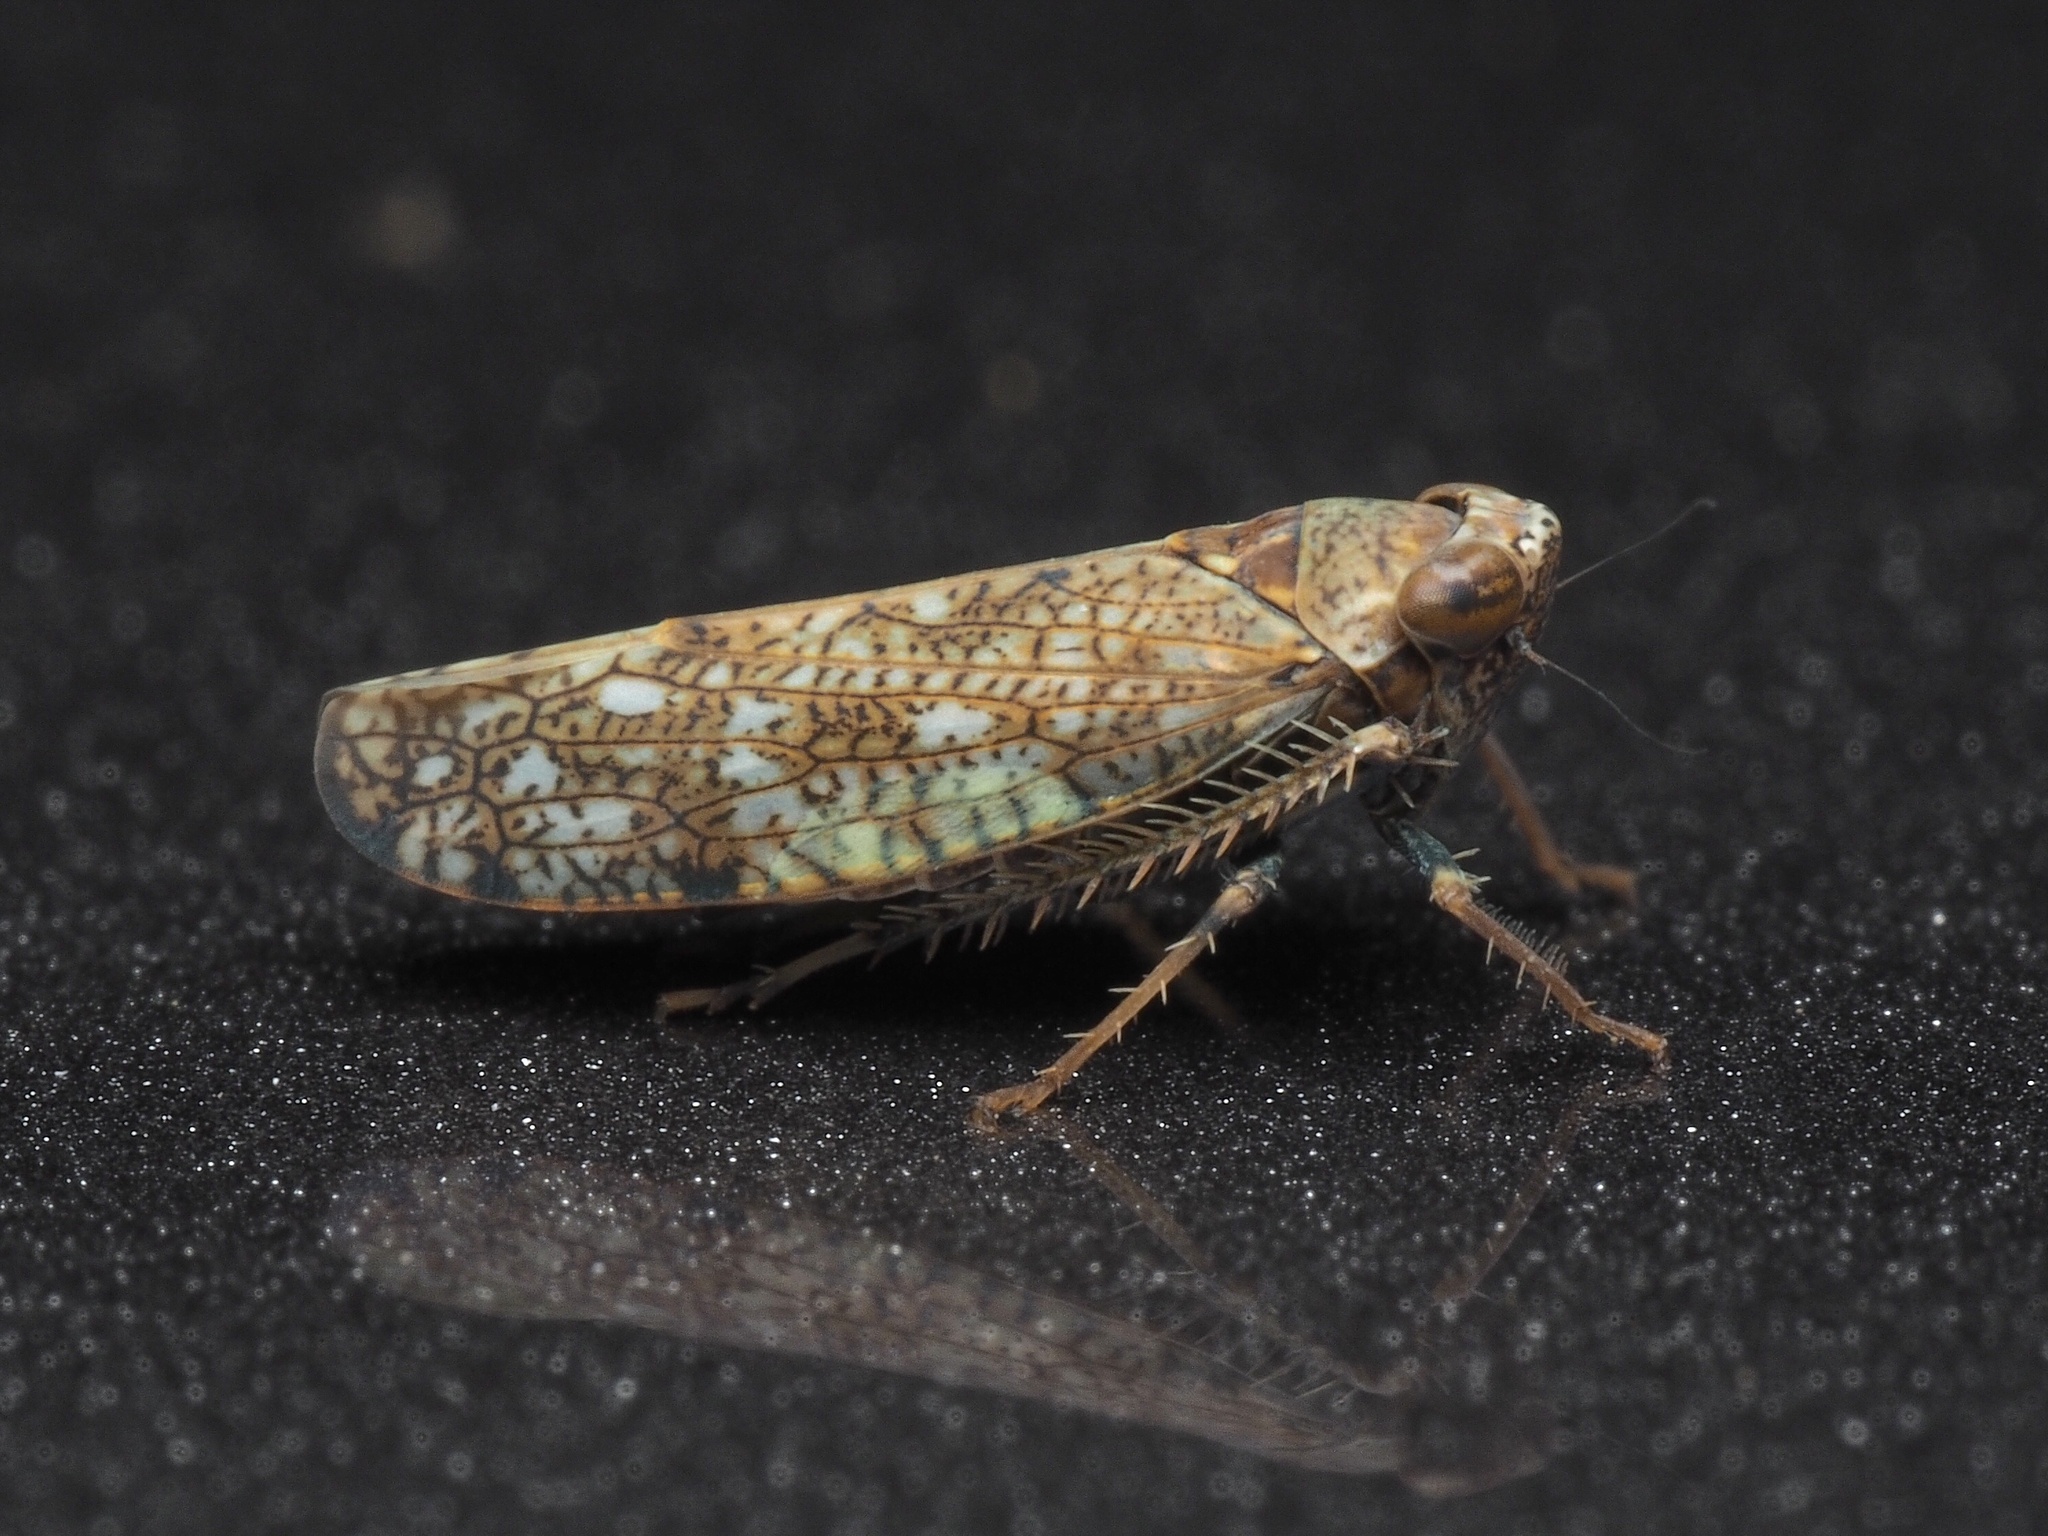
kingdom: Animalia
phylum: Arthropoda
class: Insecta
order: Hemiptera
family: Cicadellidae
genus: Orientus
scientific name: Orientus ishidae
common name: Japanese leafhopper
